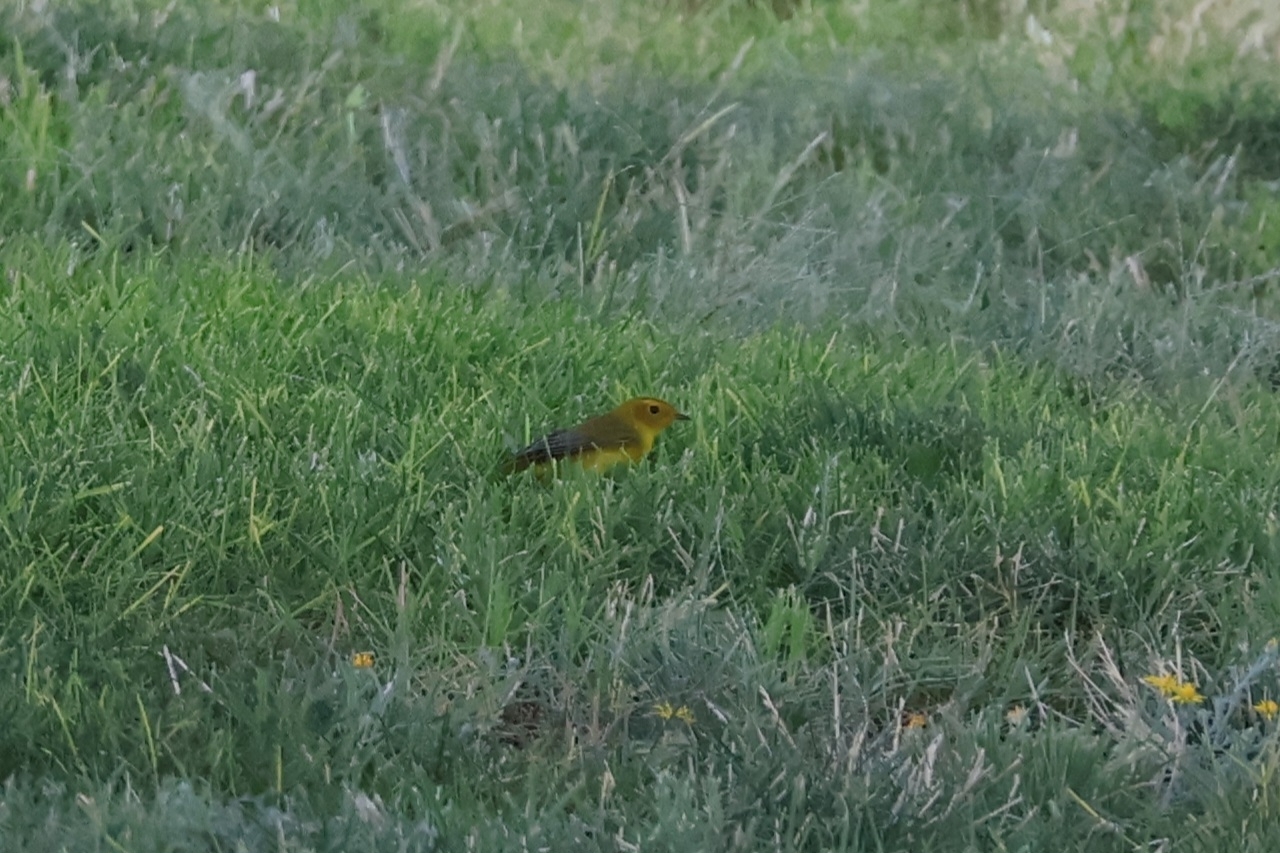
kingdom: Animalia
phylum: Chordata
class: Aves
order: Passeriformes
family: Parulidae
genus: Cardellina
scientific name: Cardellina pusilla
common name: Wilson's warbler
